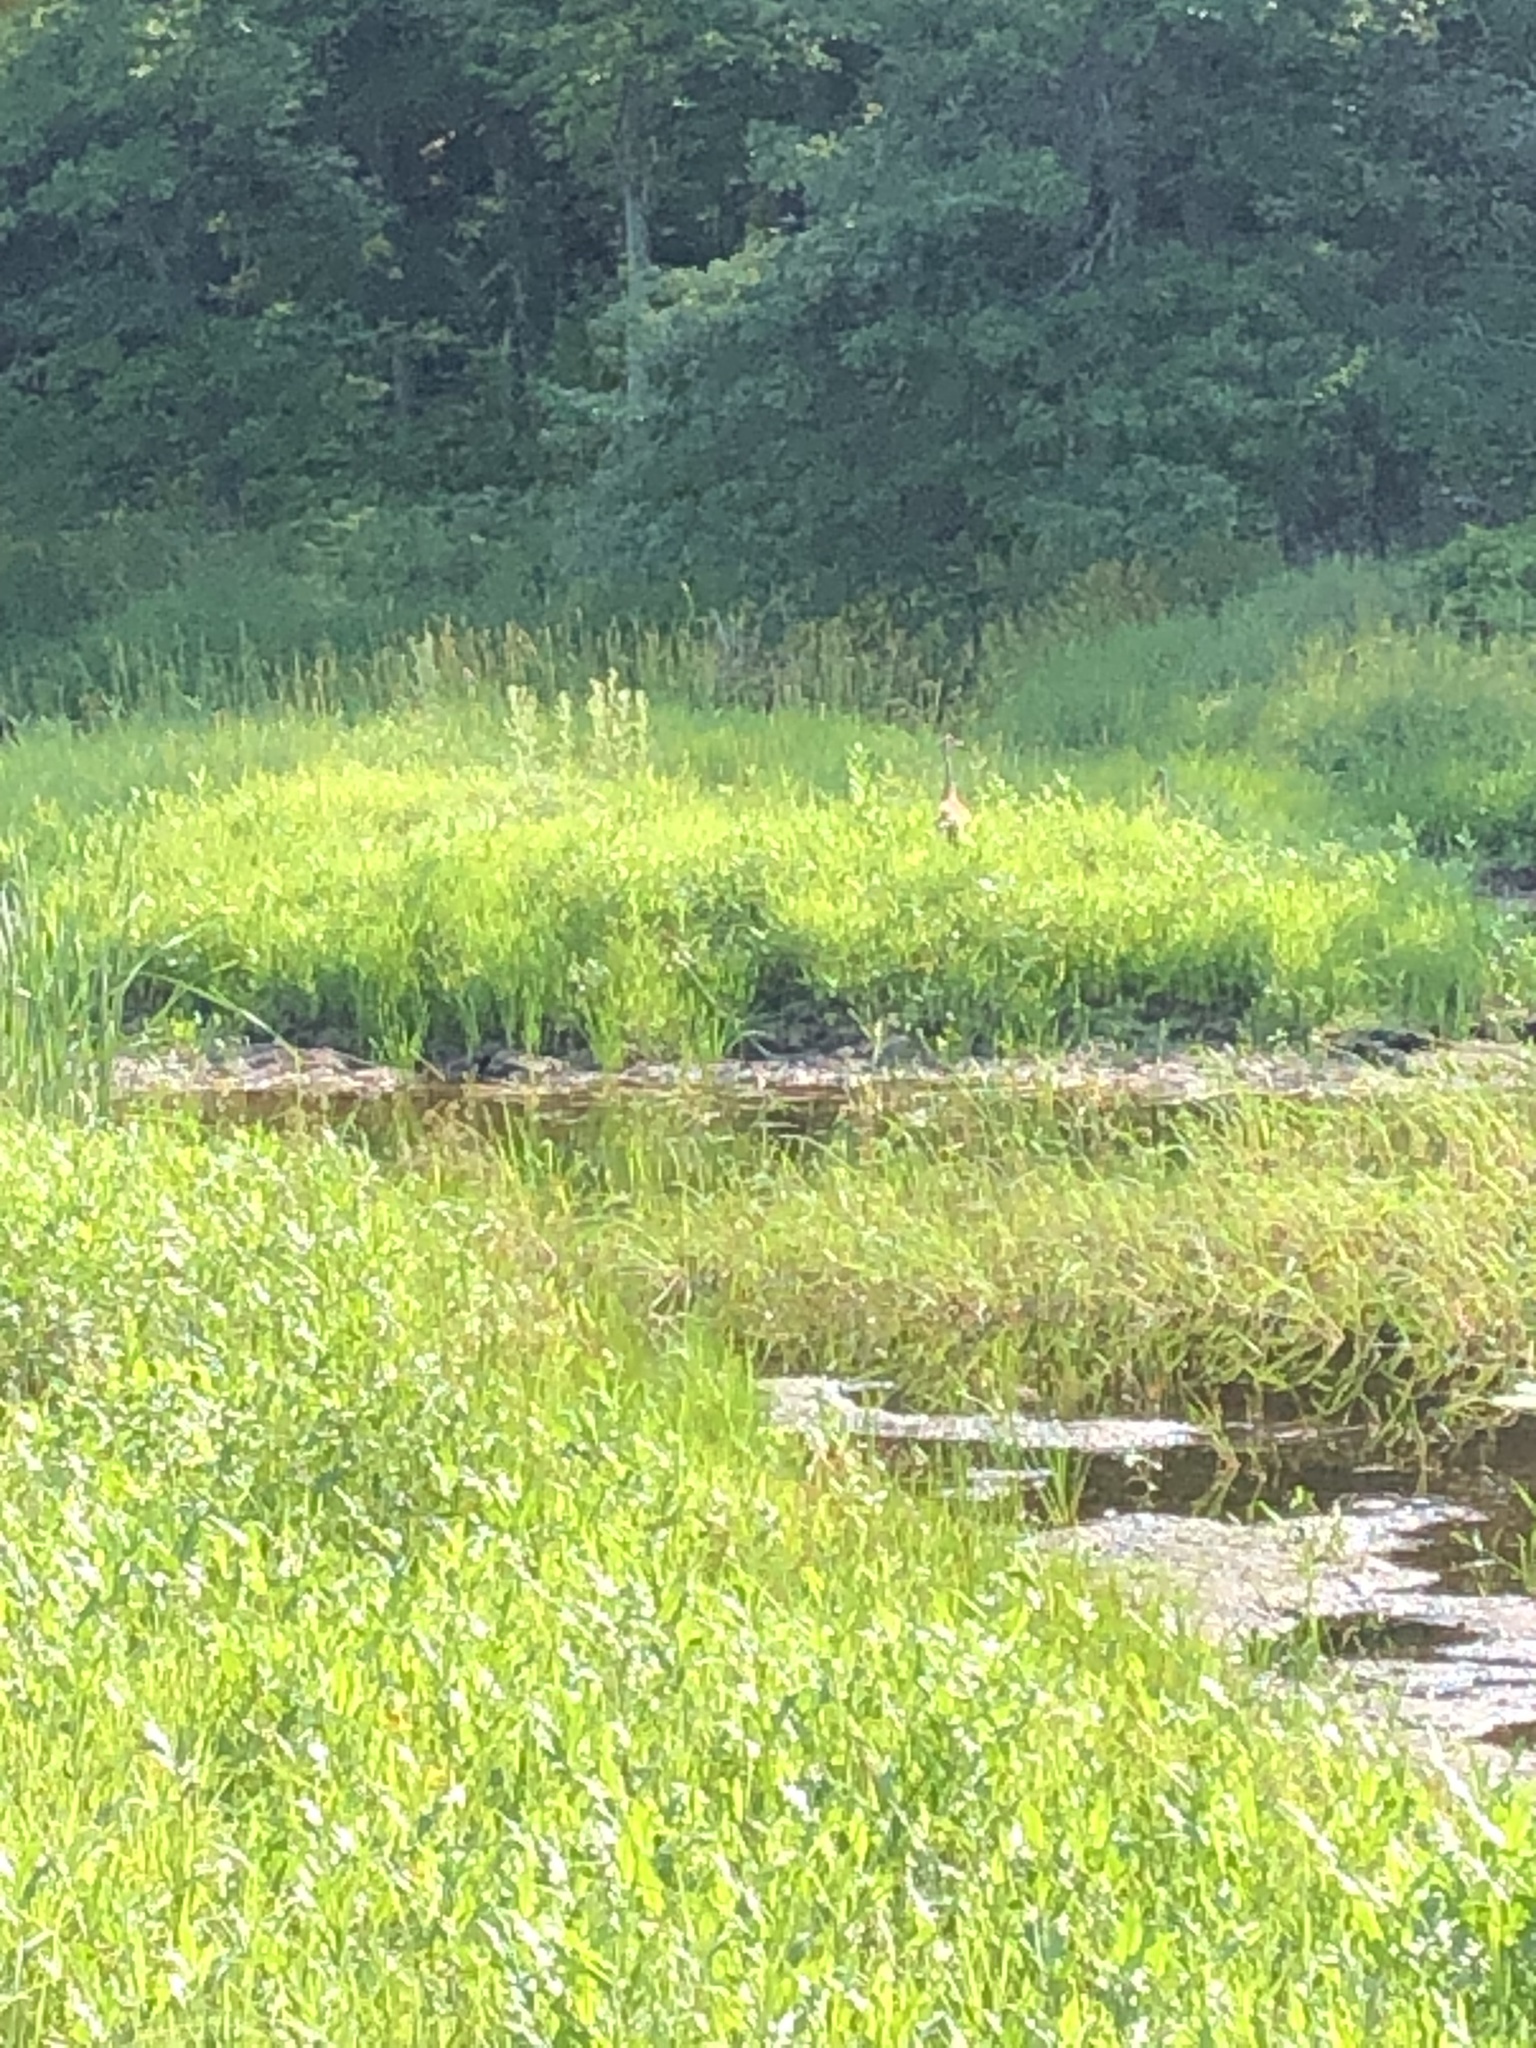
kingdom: Animalia
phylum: Chordata
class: Aves
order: Gruiformes
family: Gruidae
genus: Grus
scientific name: Grus canadensis
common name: Sandhill crane
